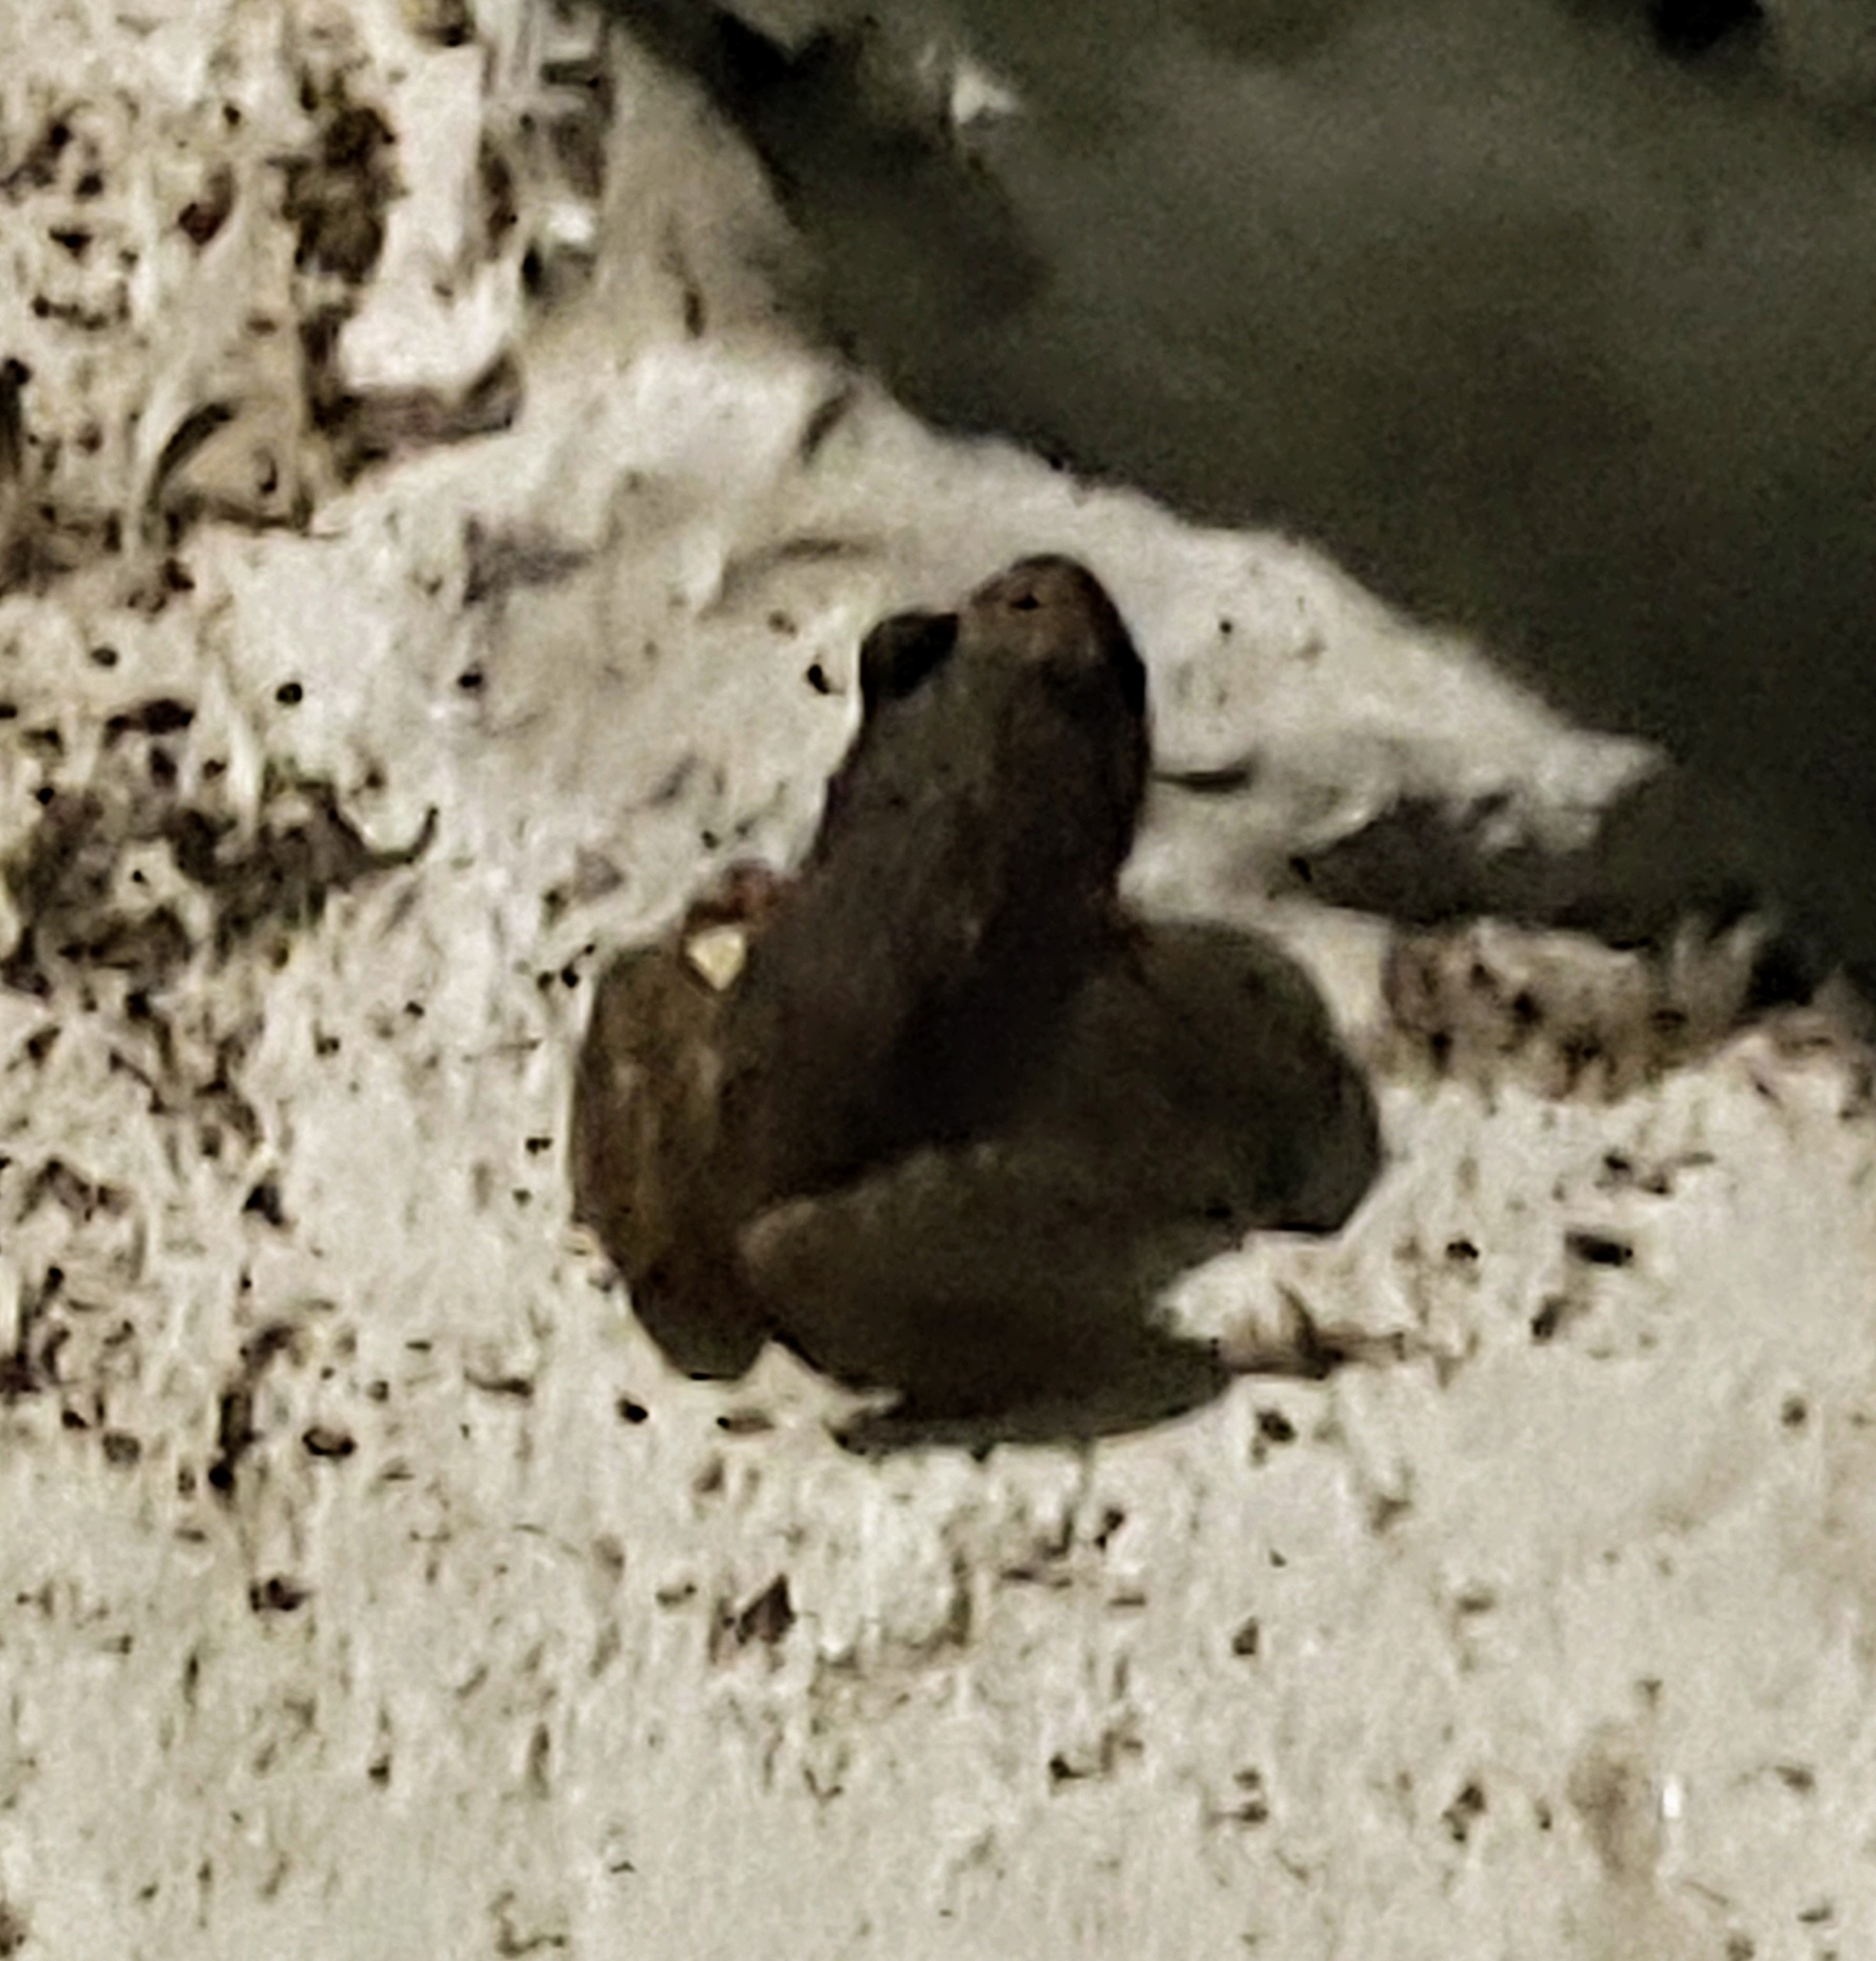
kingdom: Animalia
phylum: Chordata
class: Amphibia
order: Anura
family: Eleutherodactylidae
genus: Eleutherodactylus
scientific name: Eleutherodactylus planirostris
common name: Greenhouse frog
